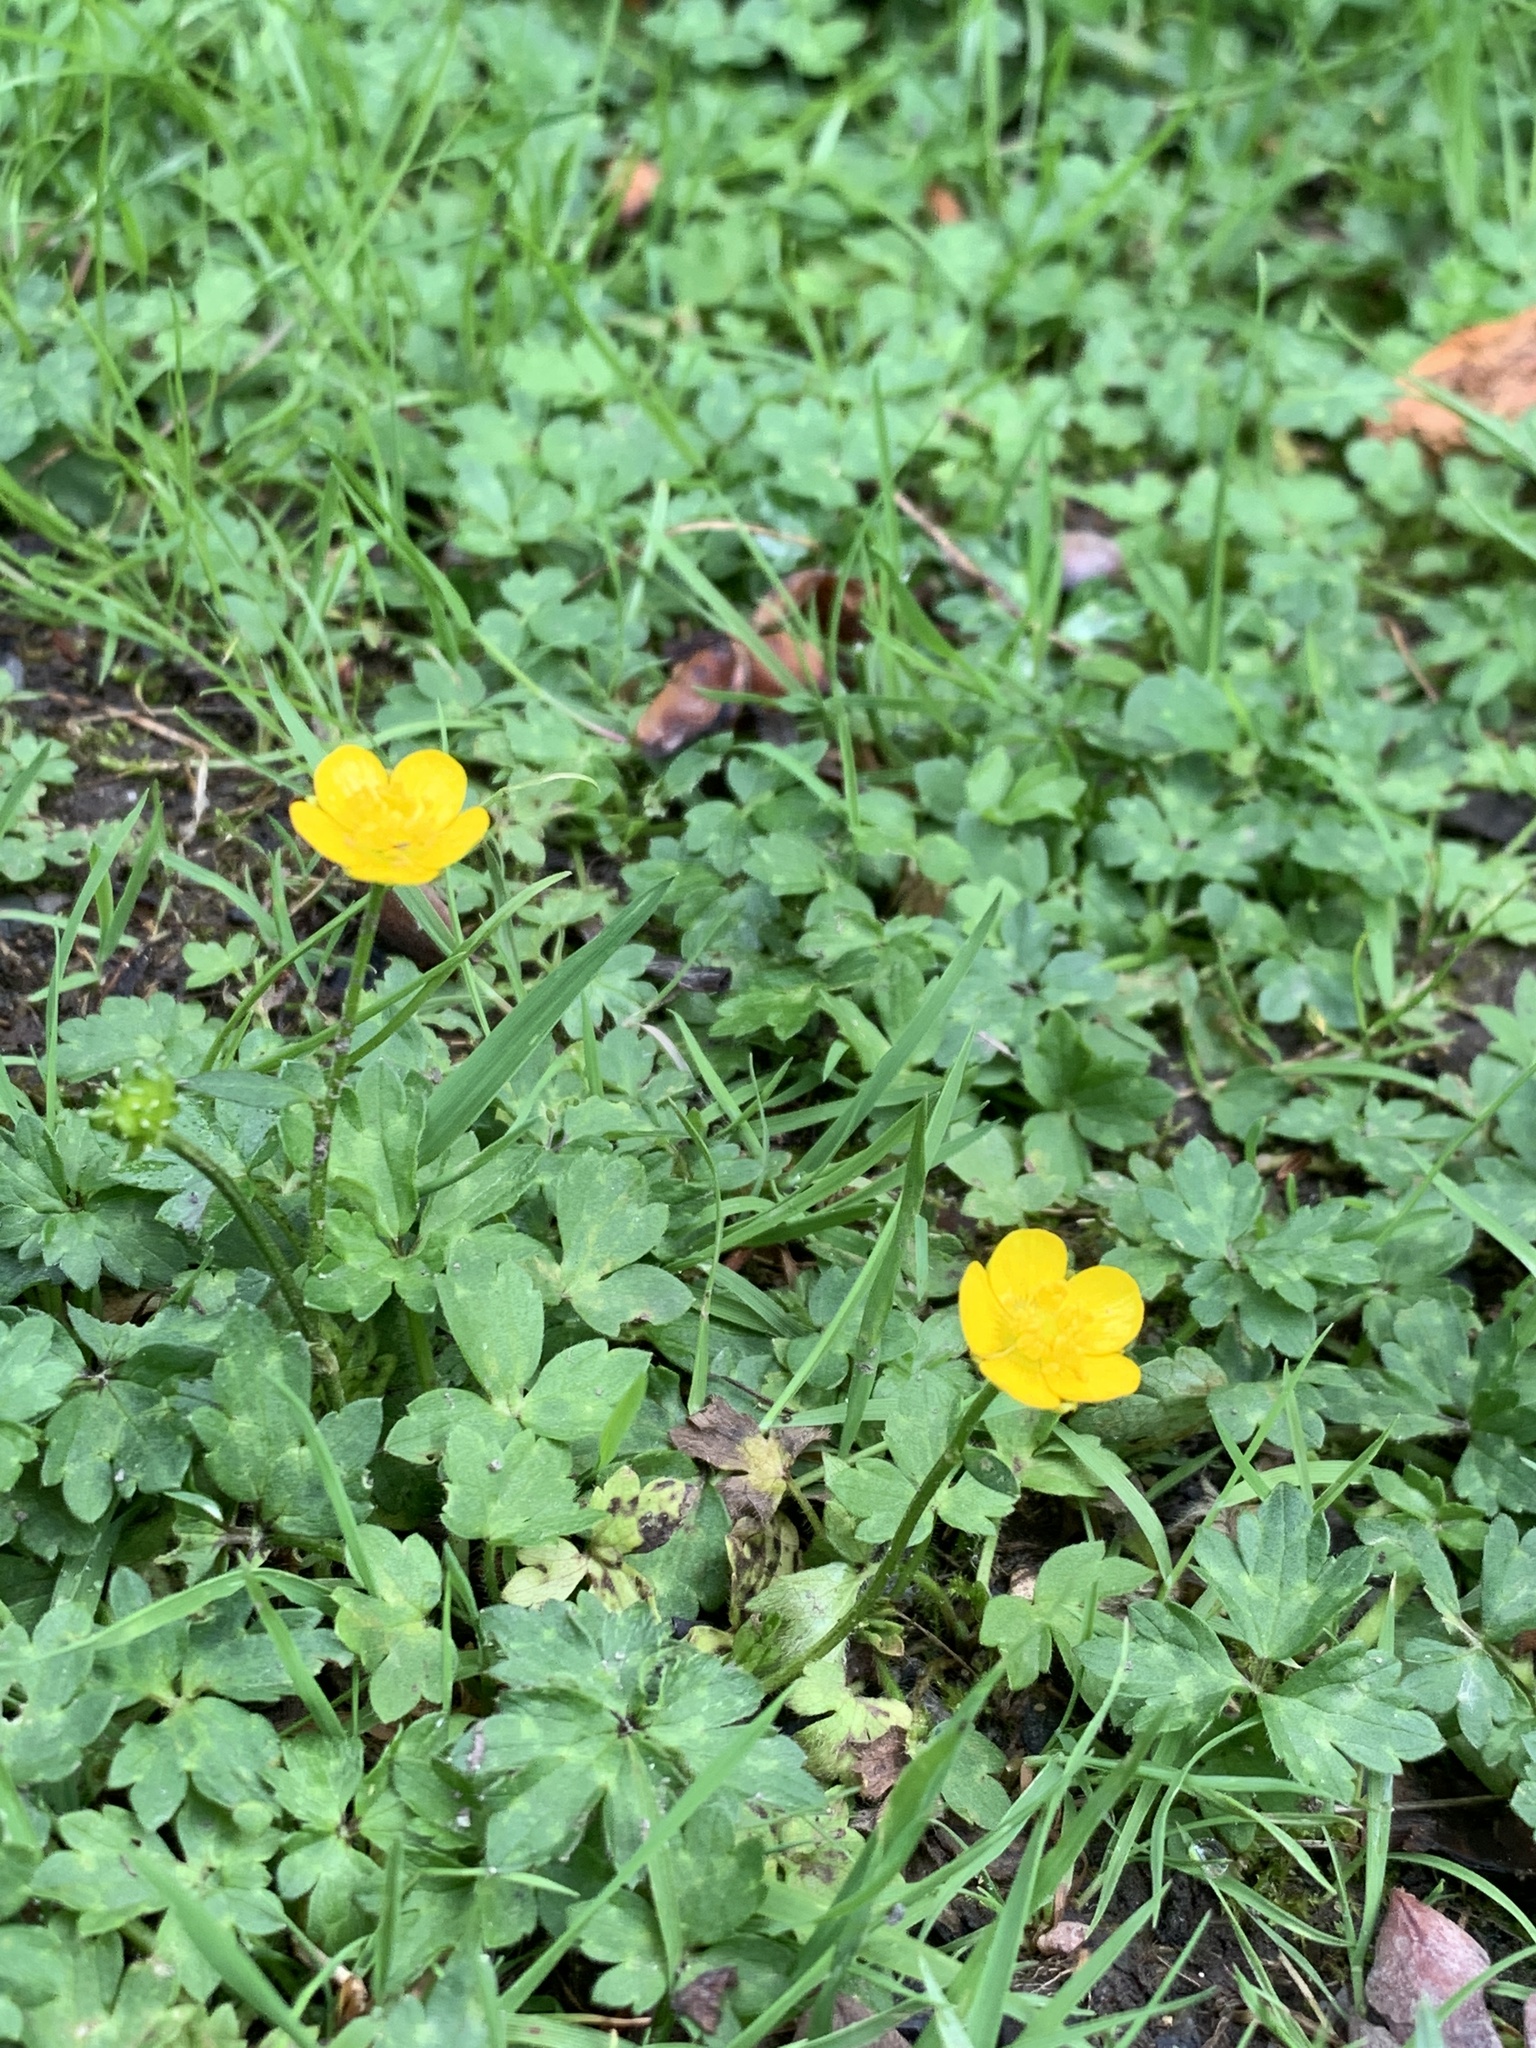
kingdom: Plantae
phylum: Tracheophyta
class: Magnoliopsida
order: Ranunculales
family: Ranunculaceae
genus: Ranunculus
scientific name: Ranunculus repens
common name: Creeping buttercup
